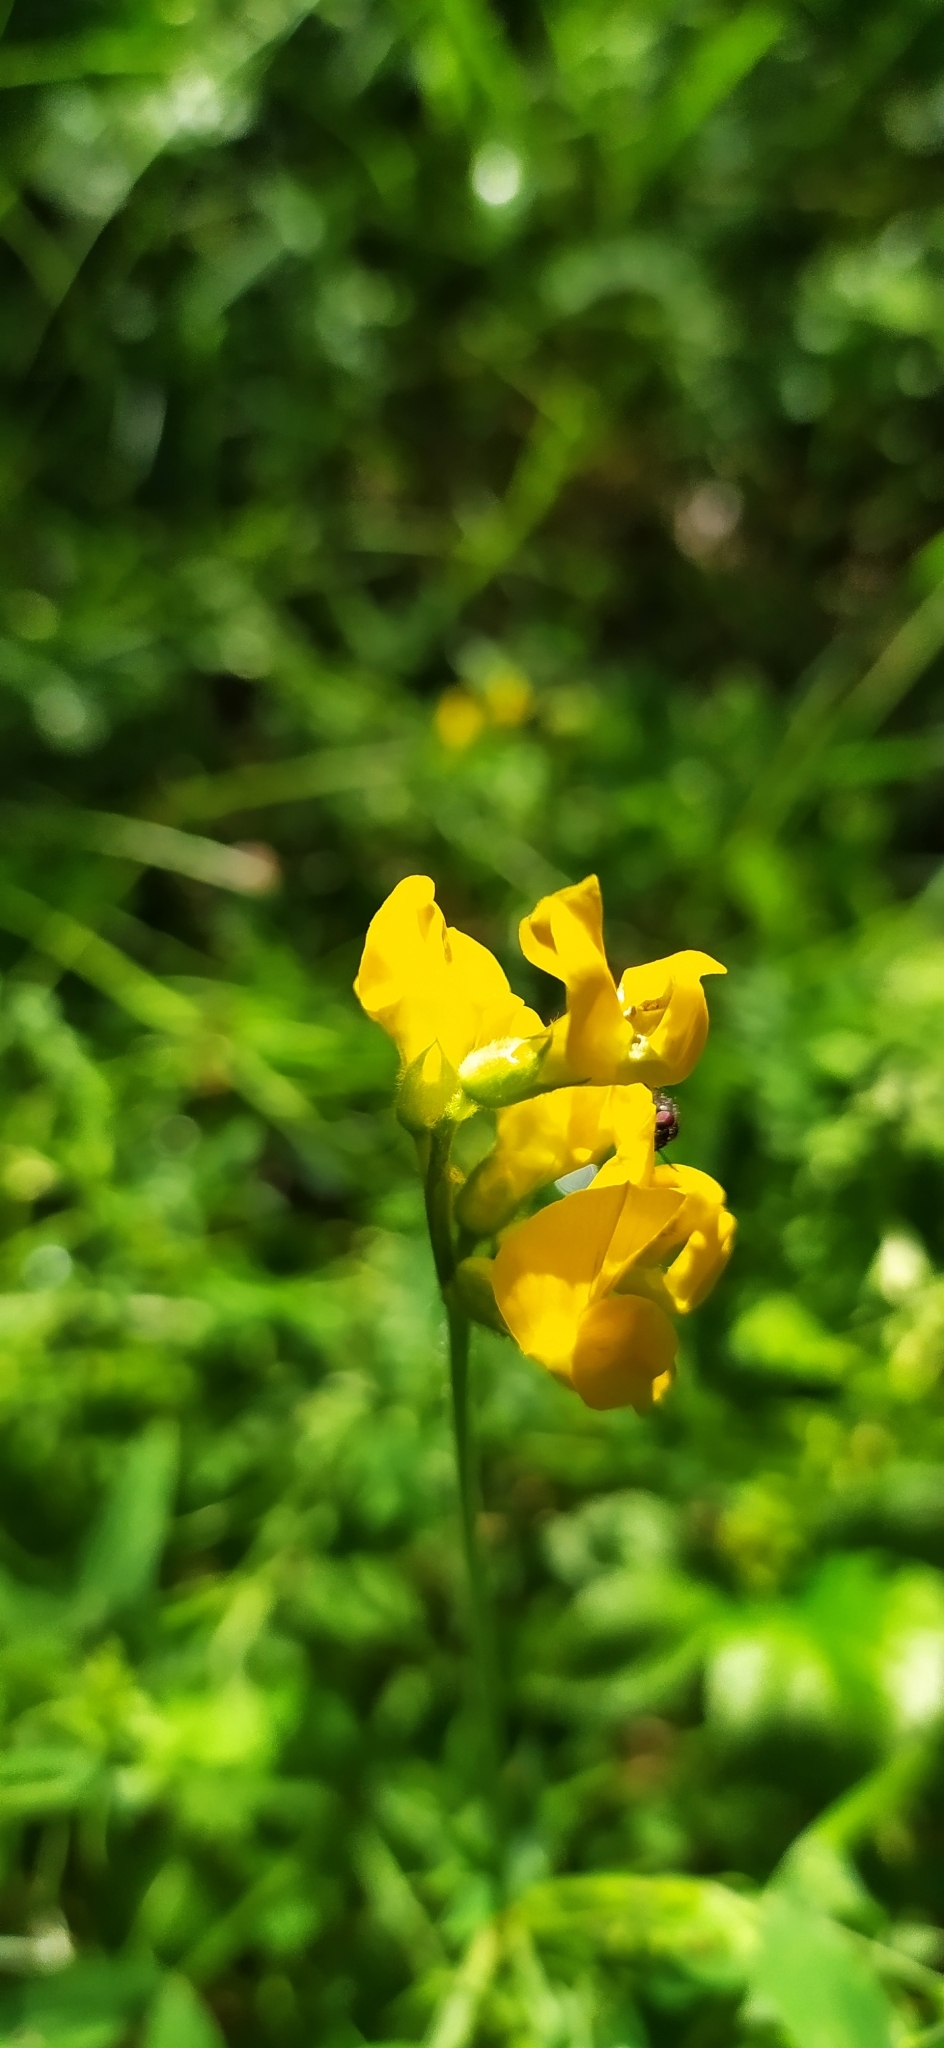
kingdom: Plantae
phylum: Tracheophyta
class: Magnoliopsida
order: Fabales
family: Fabaceae
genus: Lathyrus
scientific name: Lathyrus pratensis
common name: Meadow vetchling
